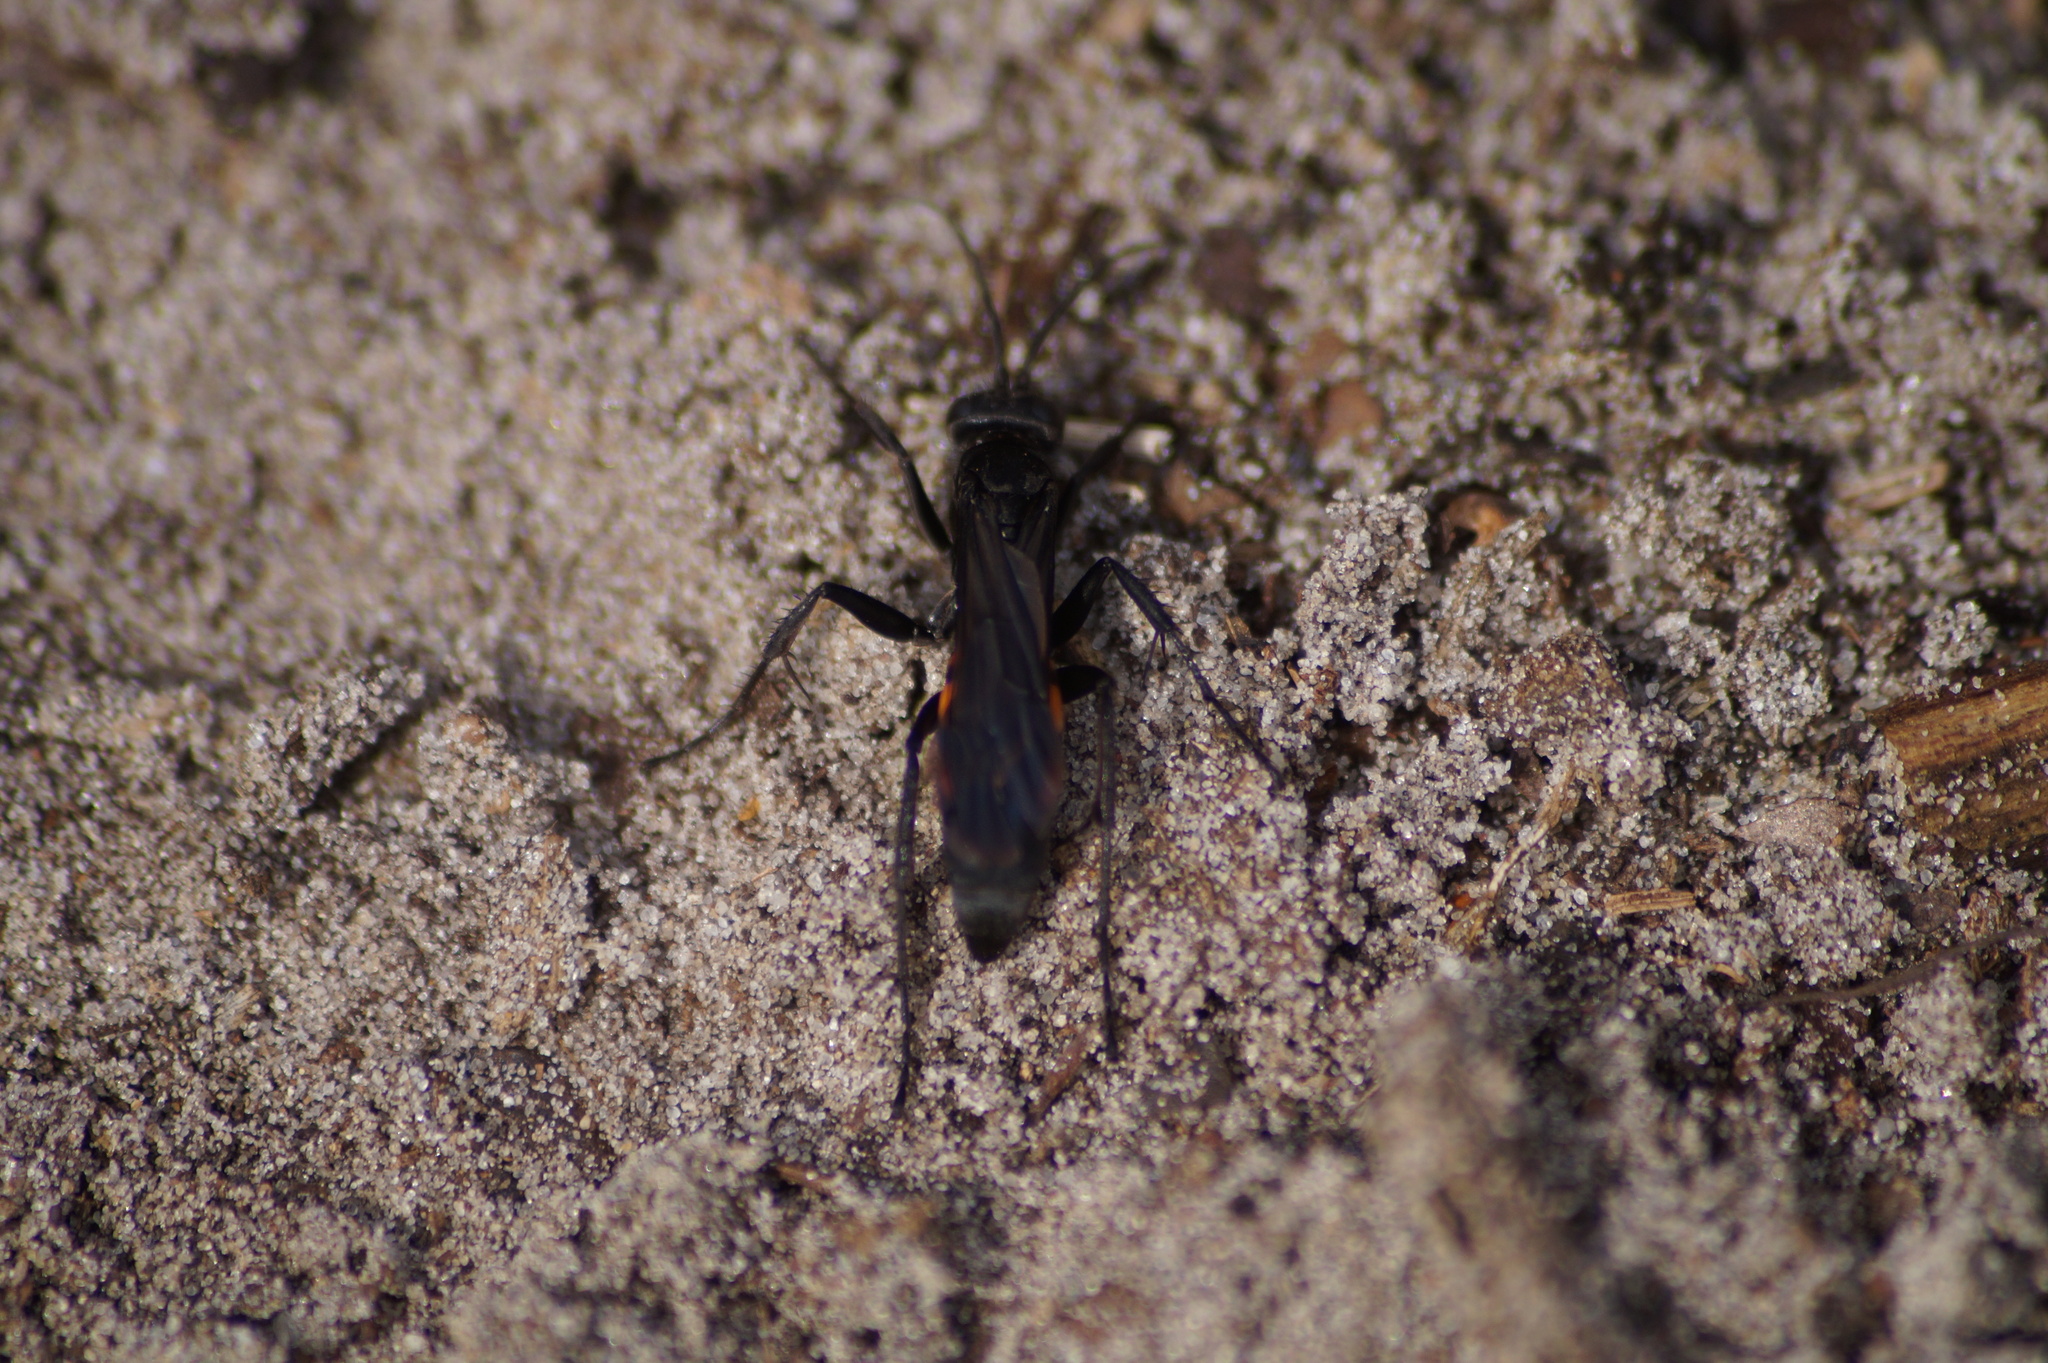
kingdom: Animalia
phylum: Arthropoda
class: Insecta
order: Hymenoptera
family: Pompilidae
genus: Anoplius
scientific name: Anoplius viaticus
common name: Black banded spider wasp
